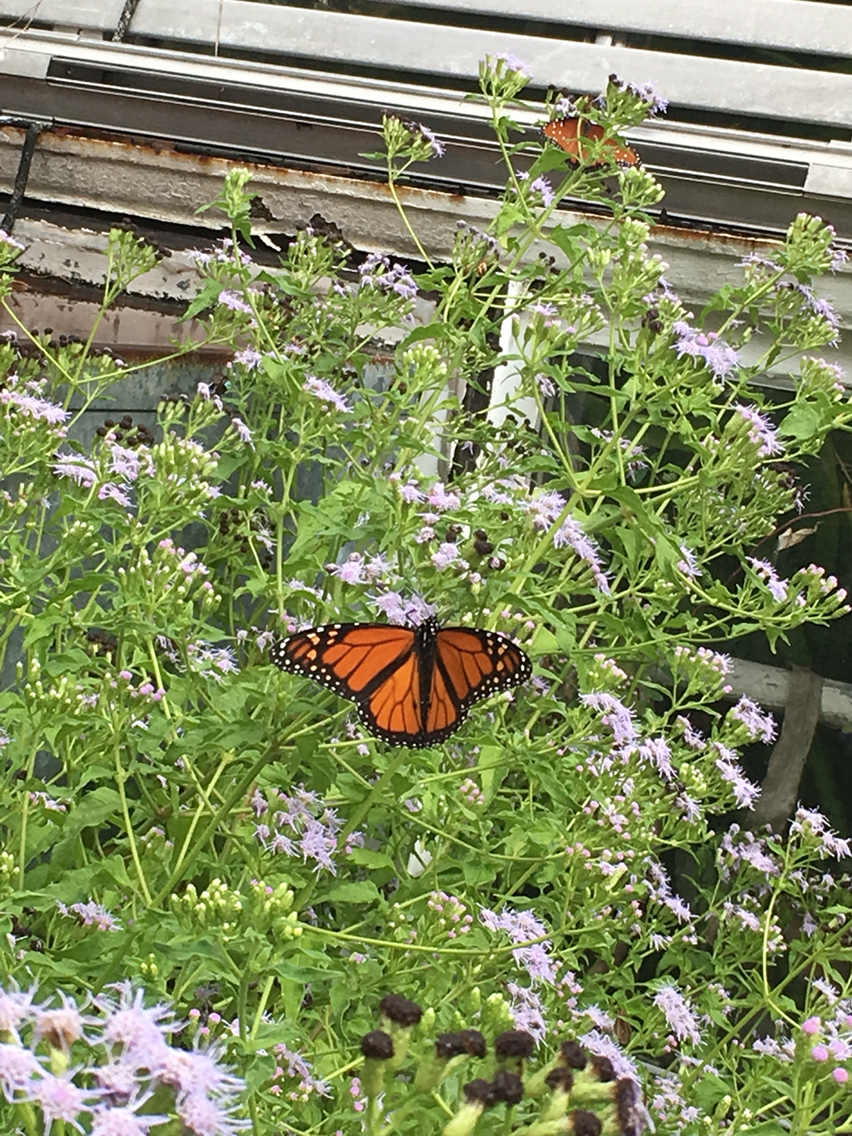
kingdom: Animalia
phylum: Arthropoda
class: Insecta
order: Lepidoptera
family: Nymphalidae
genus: Danaus
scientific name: Danaus plexippus
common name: Monarch
